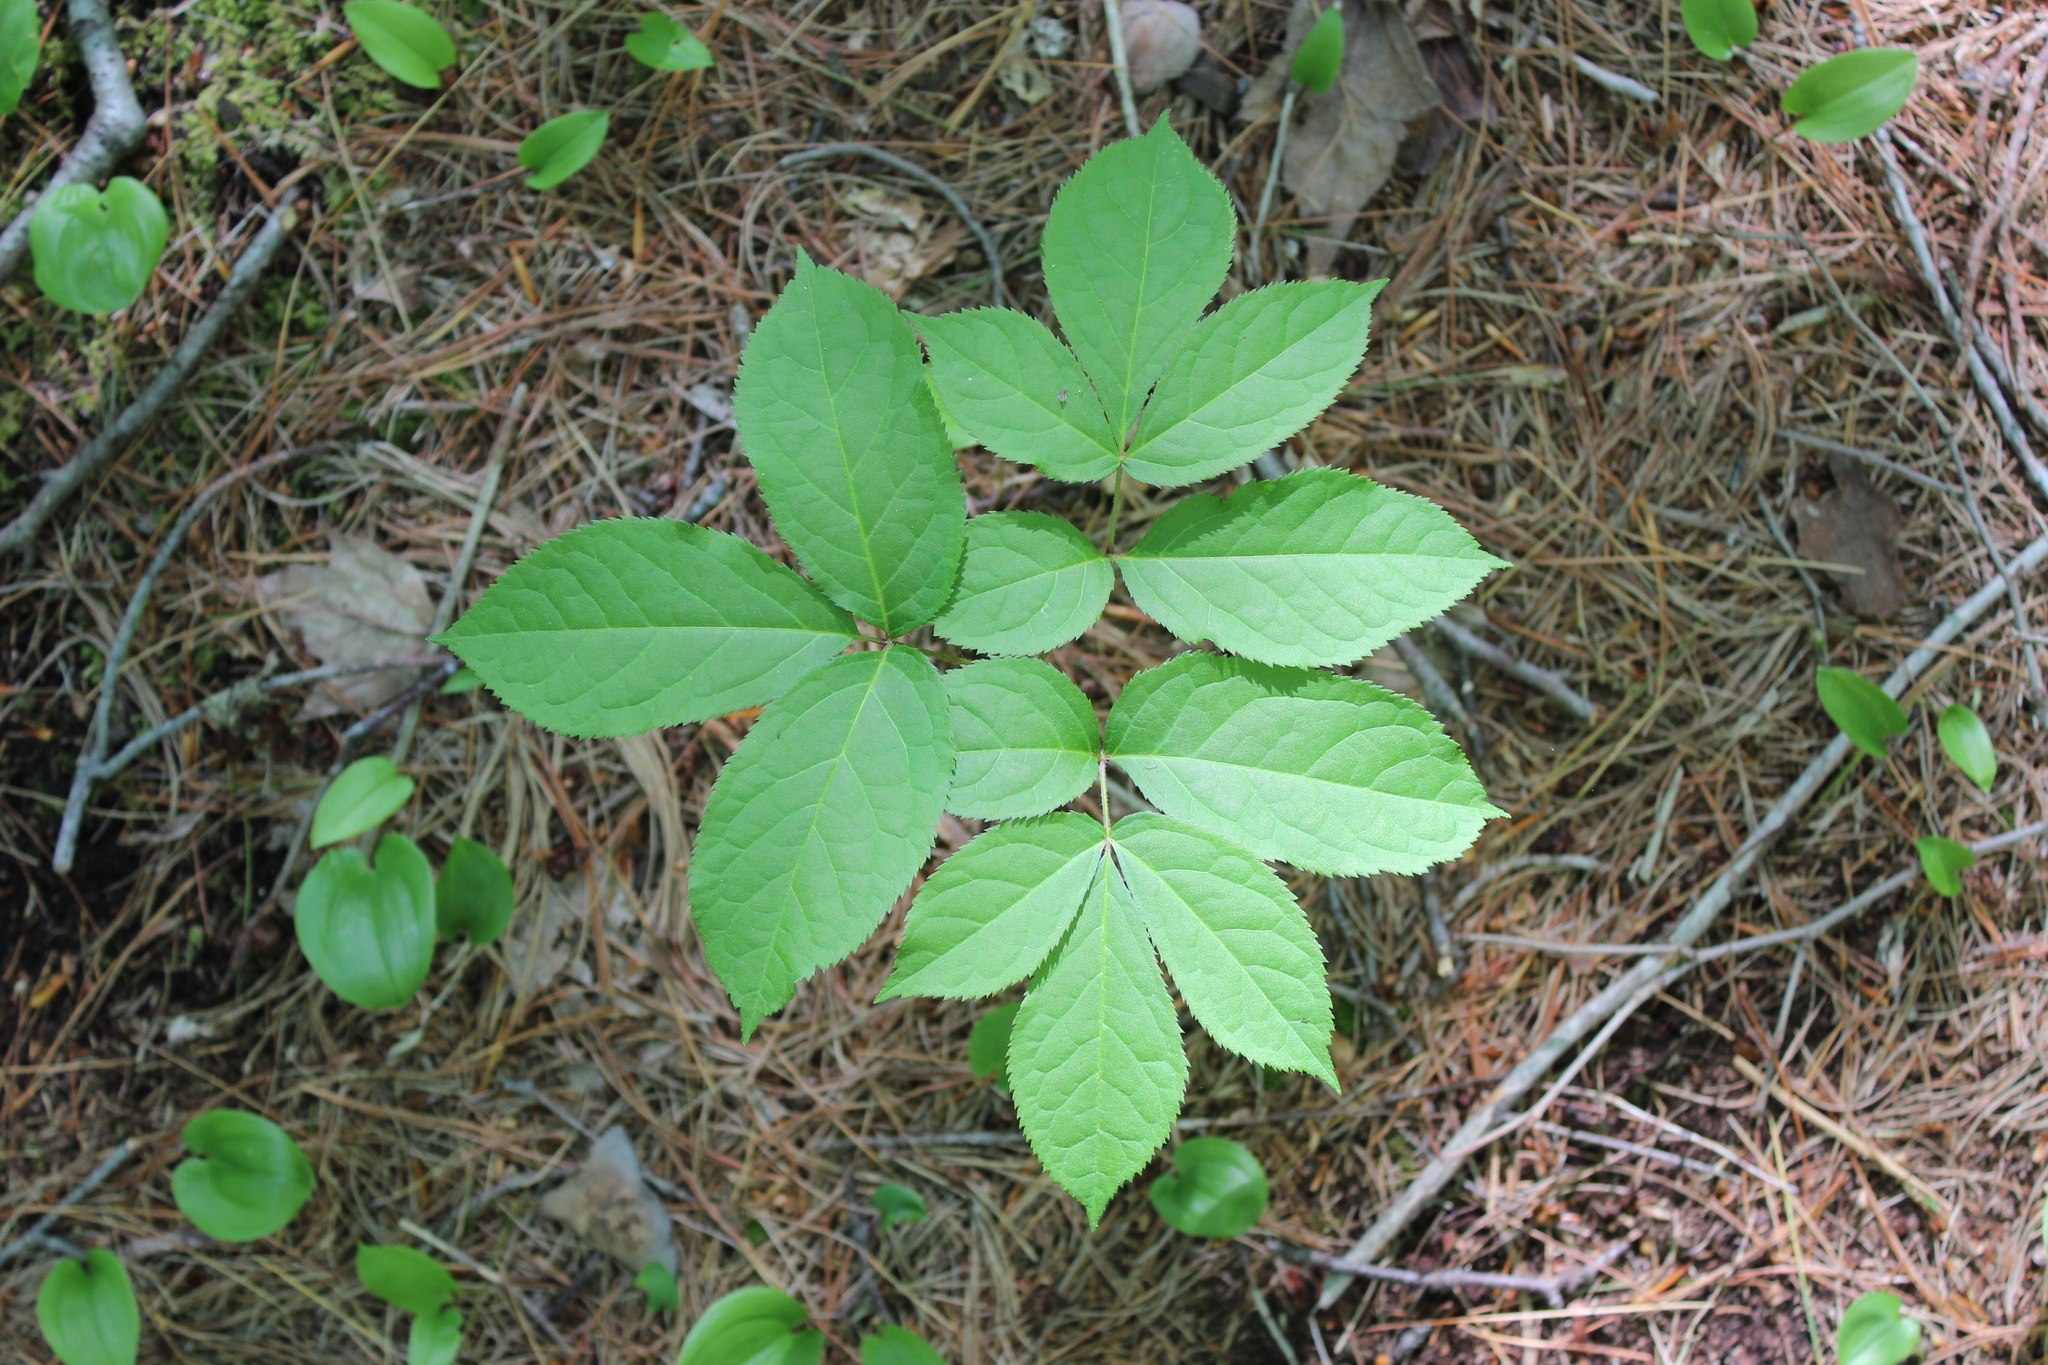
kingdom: Plantae
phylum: Tracheophyta
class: Magnoliopsida
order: Apiales
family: Araliaceae
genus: Aralia
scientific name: Aralia nudicaulis
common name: Wild sarsaparilla
